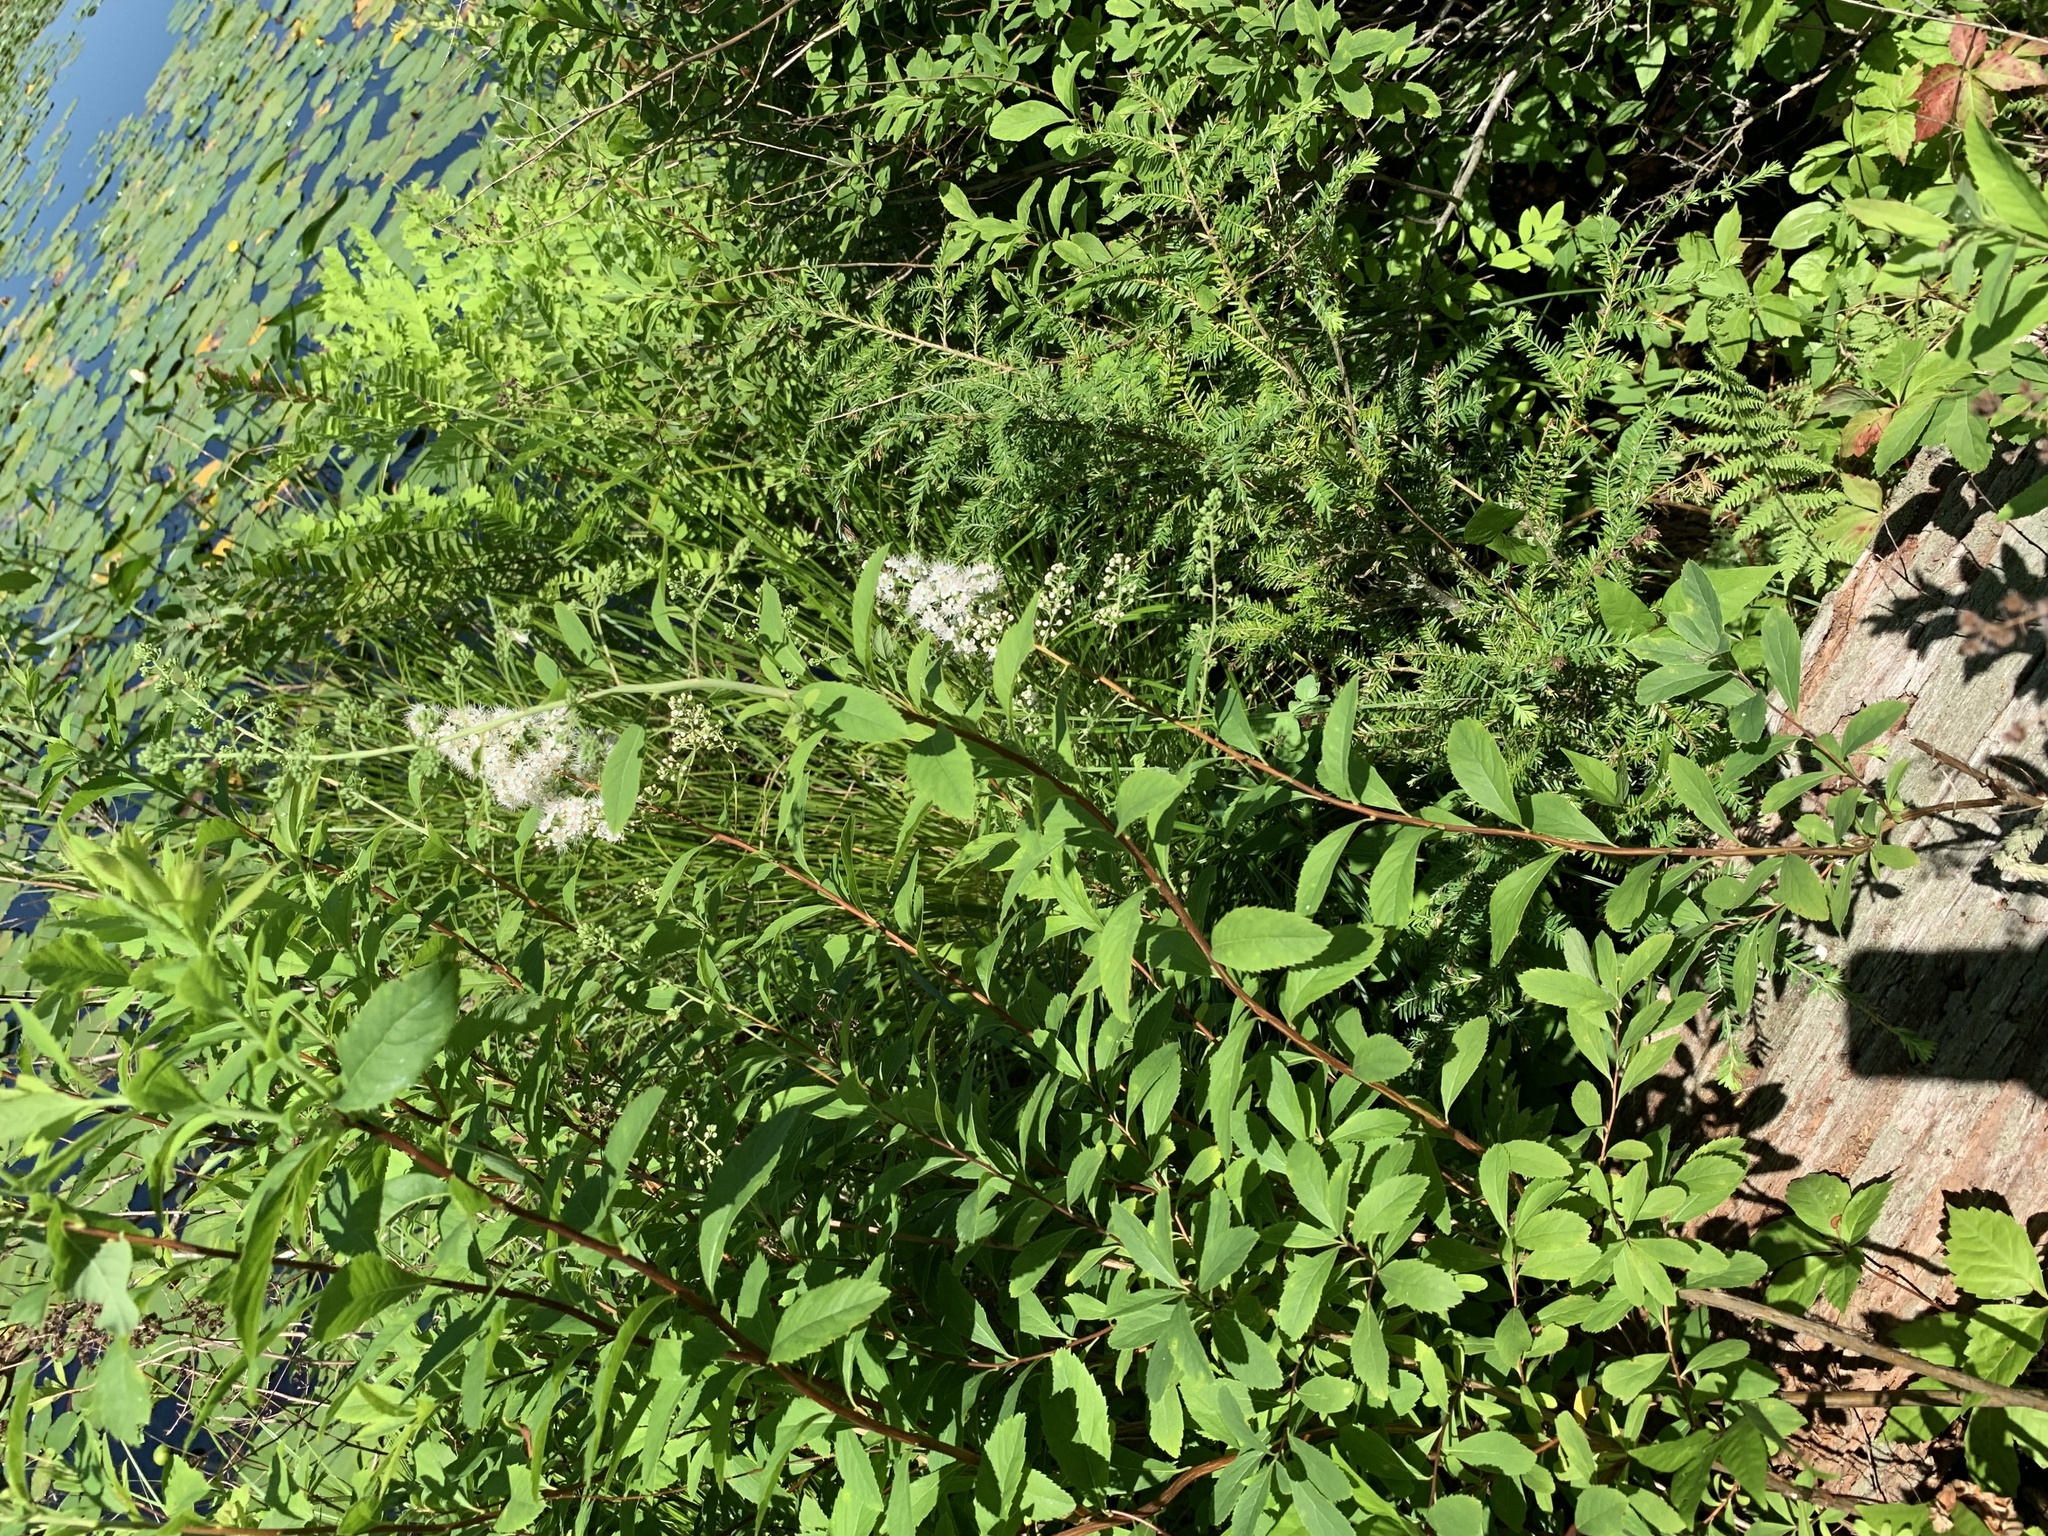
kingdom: Plantae
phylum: Tracheophyta
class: Magnoliopsida
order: Rosales
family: Rosaceae
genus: Spiraea
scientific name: Spiraea alba
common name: Pale bridewort
